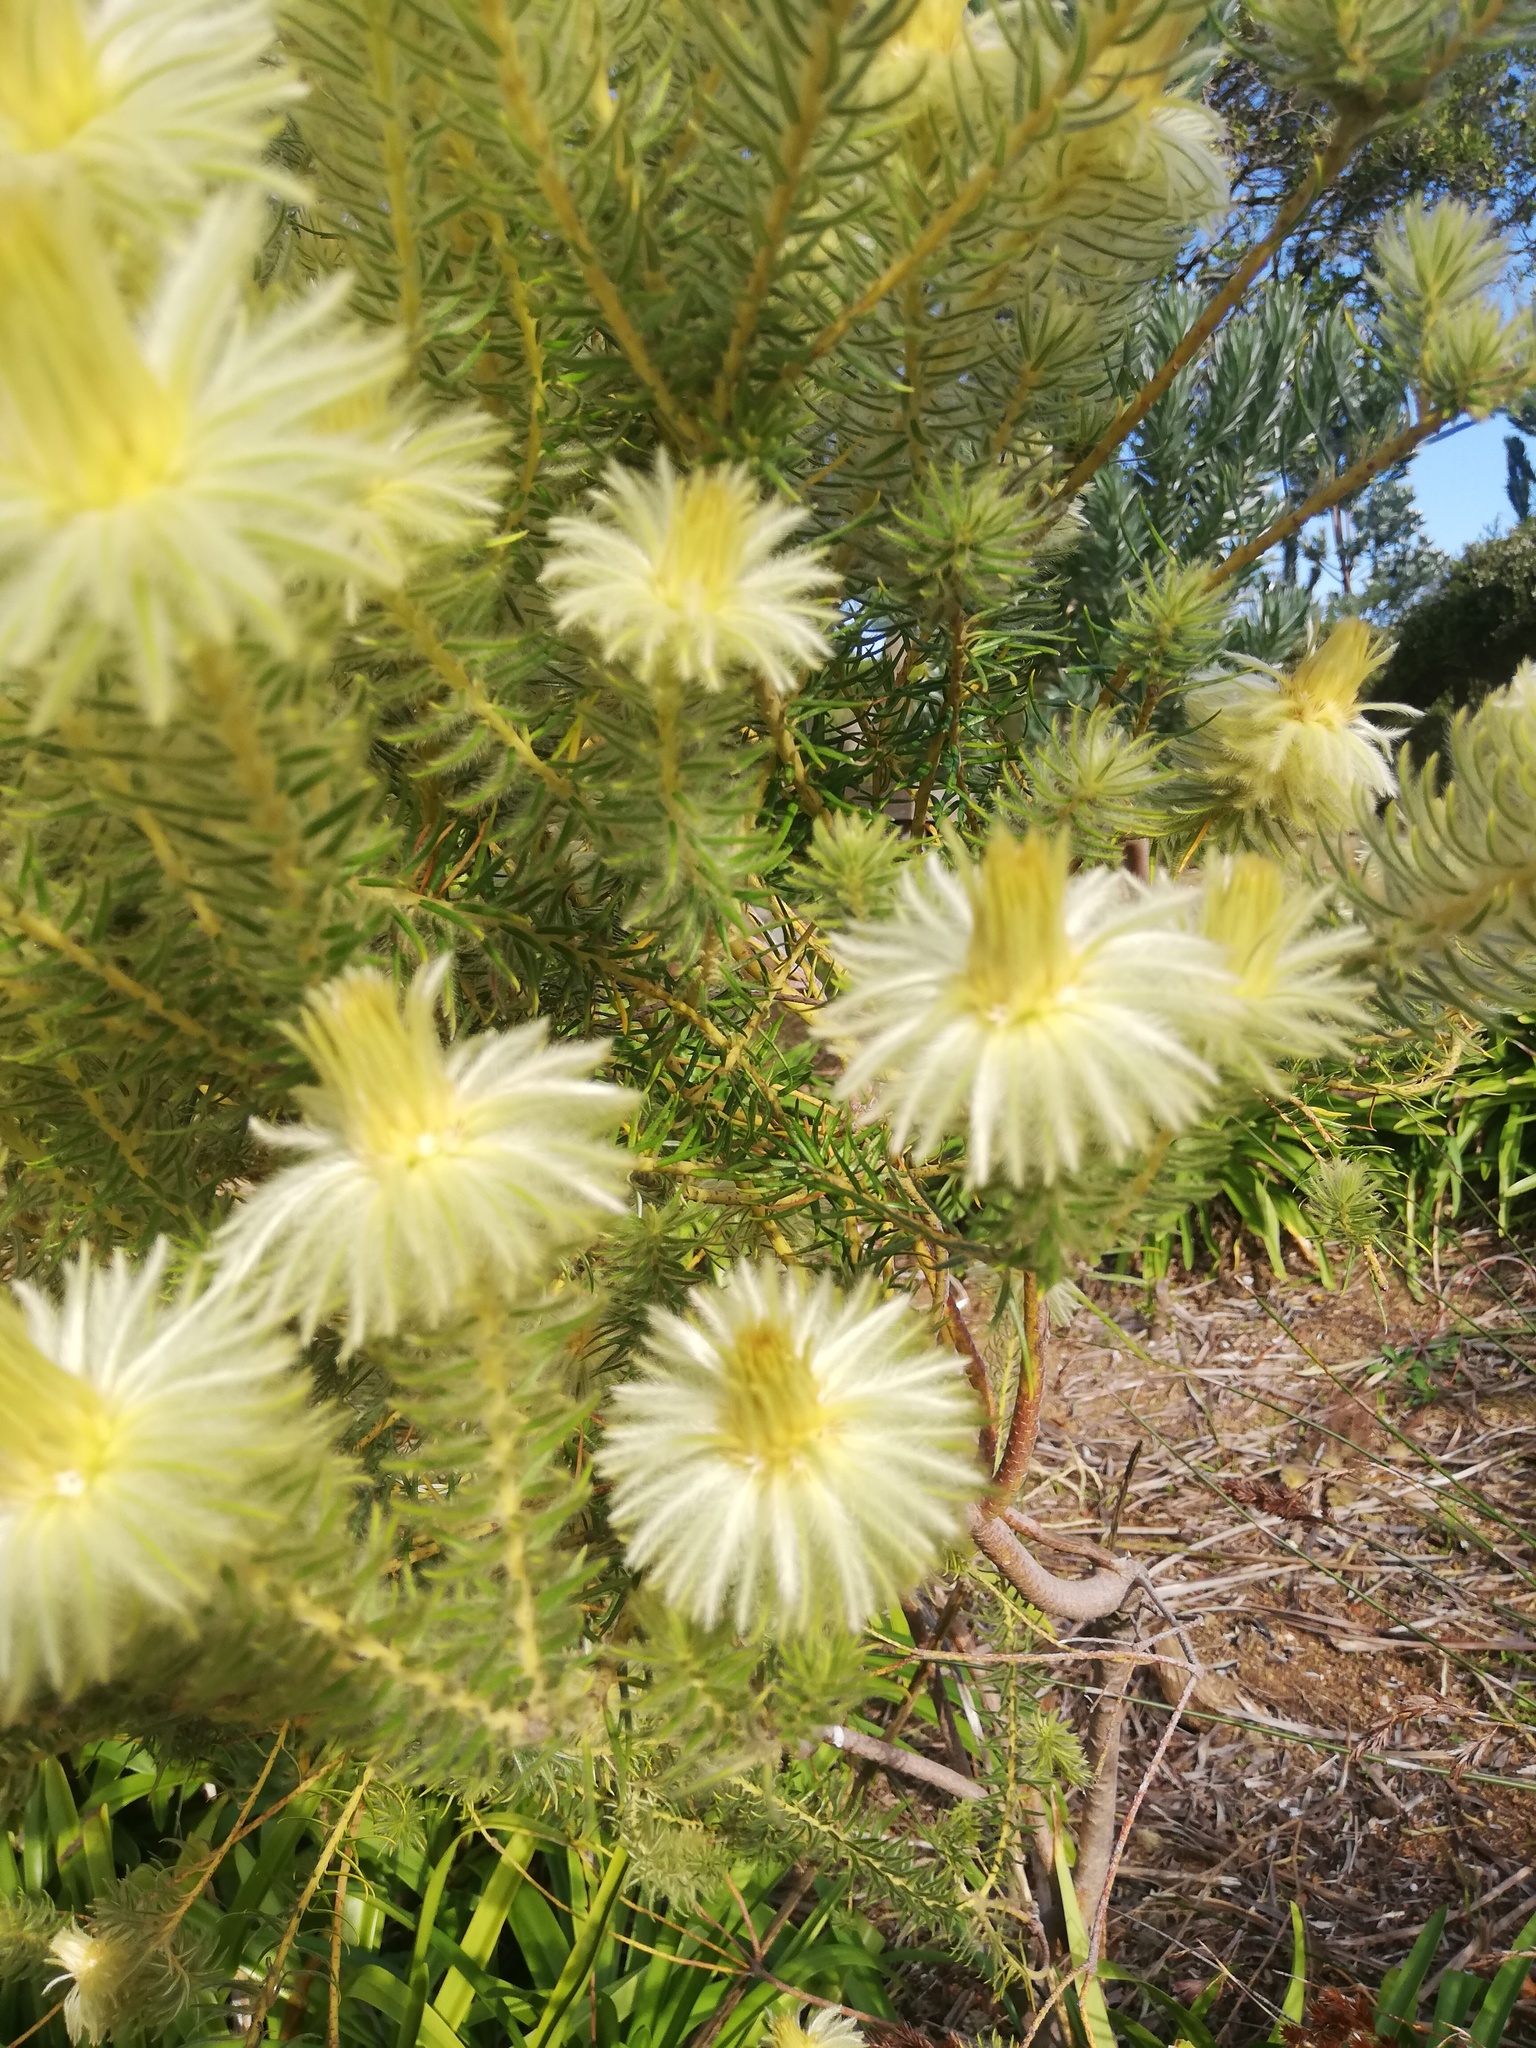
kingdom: Plantae
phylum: Tracheophyta
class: Magnoliopsida
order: Rosales
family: Rhamnaceae
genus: Phylica
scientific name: Phylica pubescens
